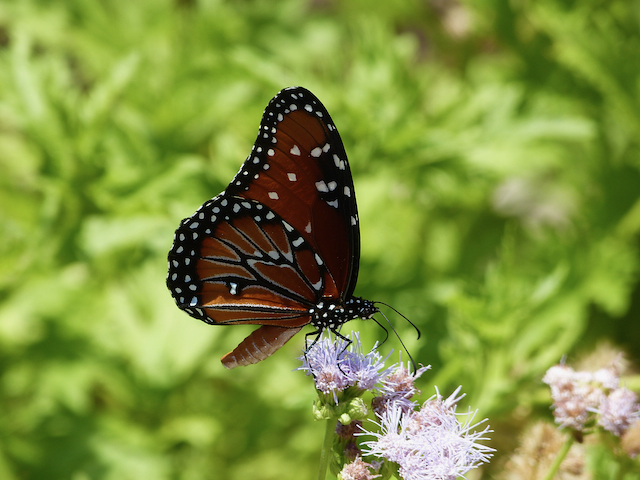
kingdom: Animalia
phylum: Arthropoda
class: Insecta
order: Lepidoptera
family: Nymphalidae
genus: Danaus
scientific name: Danaus gilippus
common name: Queen
